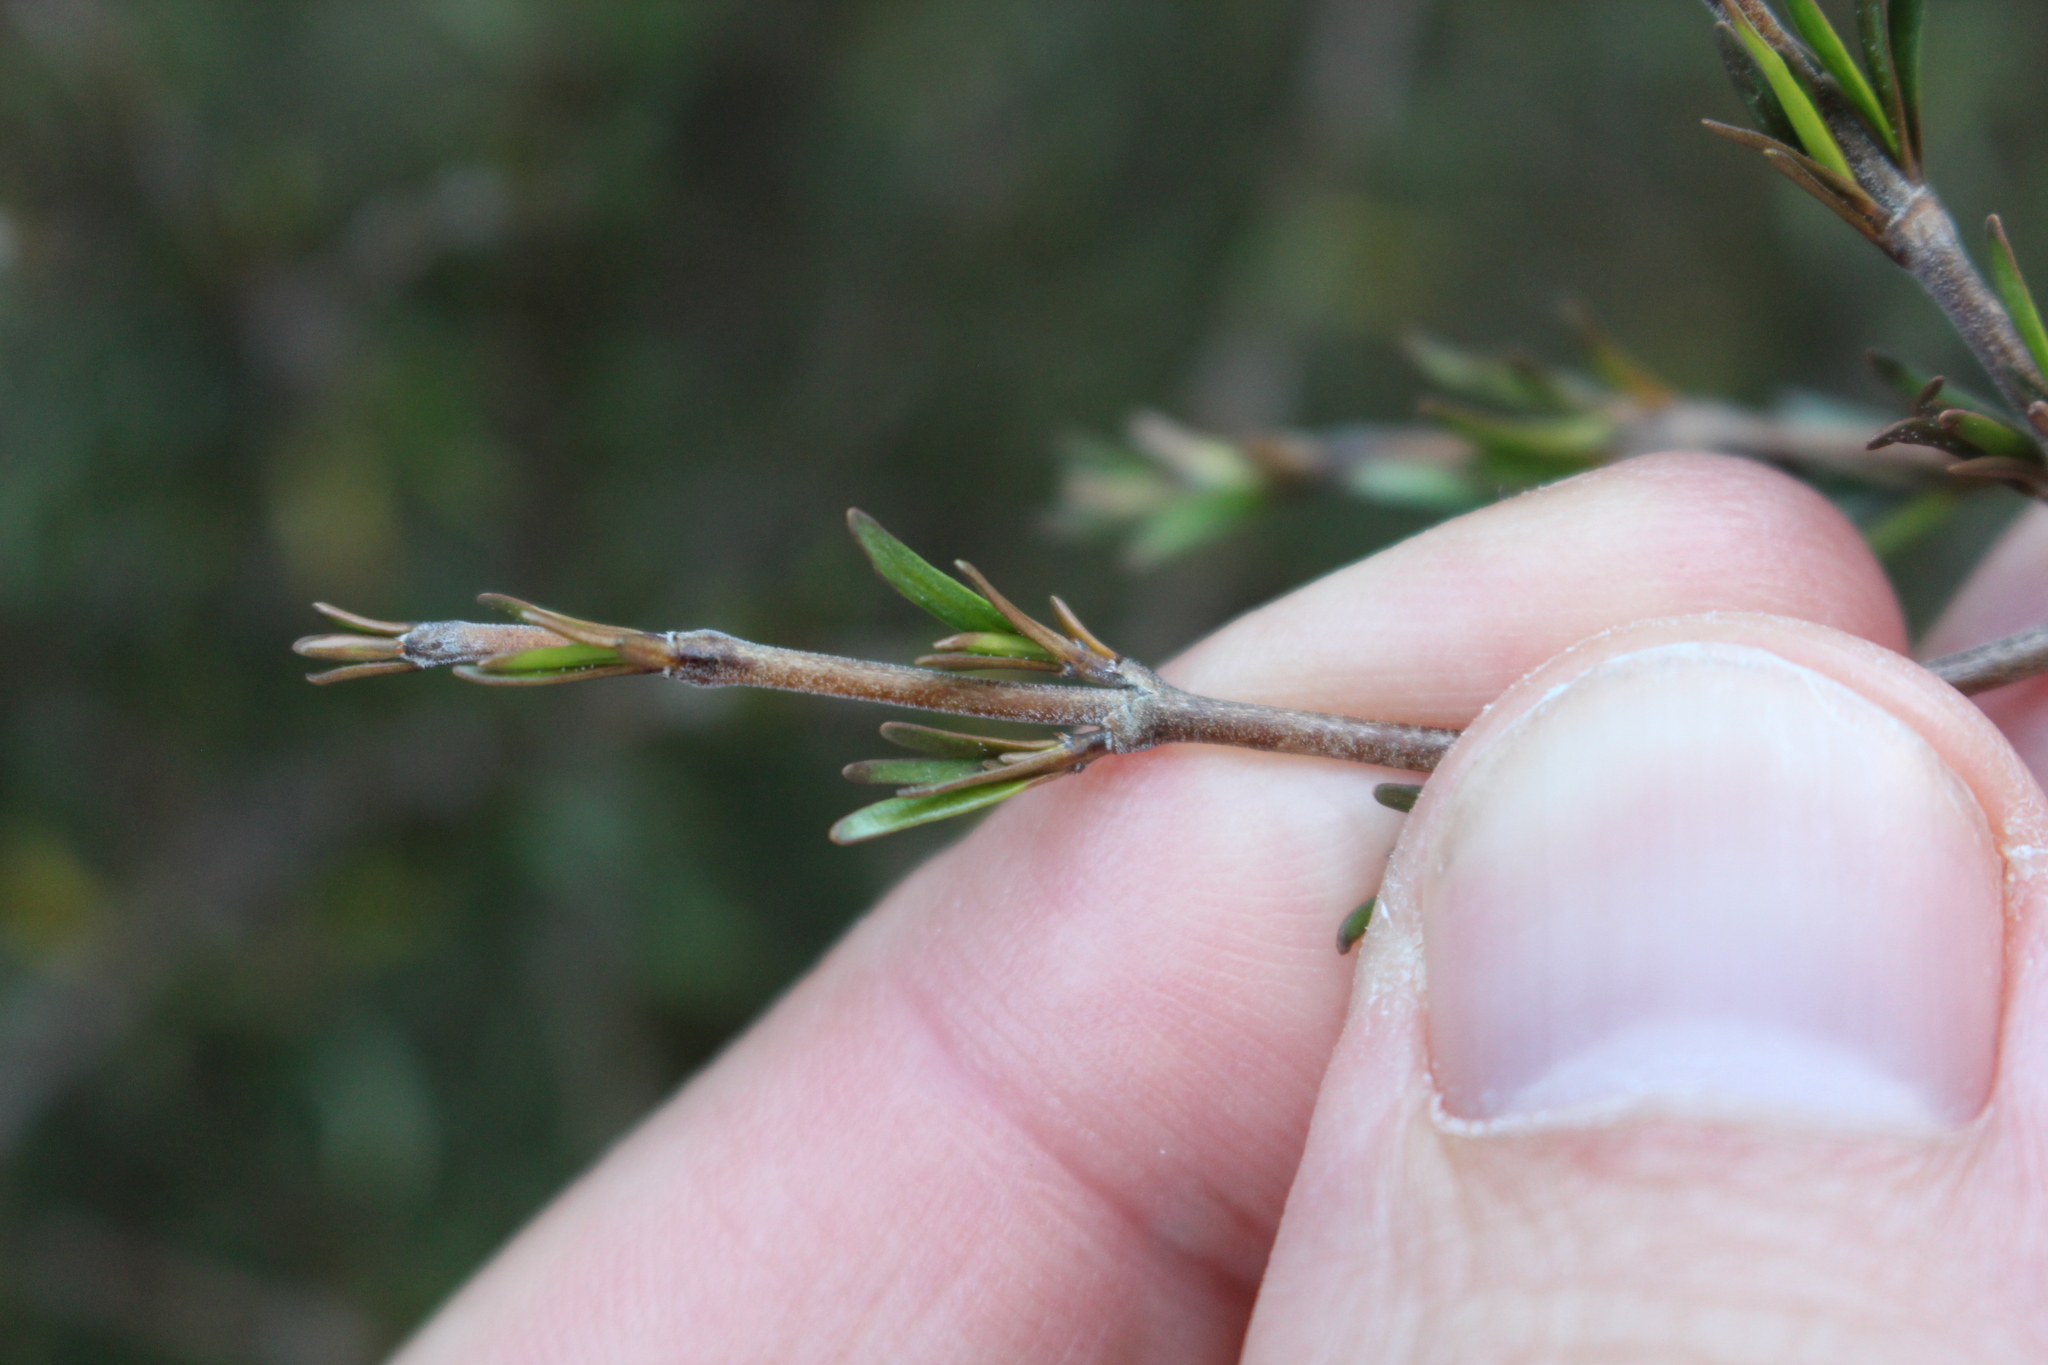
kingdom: Plantae
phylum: Tracheophyta
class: Magnoliopsida
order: Gentianales
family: Rubiaceae
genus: Coprosma
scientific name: Coprosma rugosa
